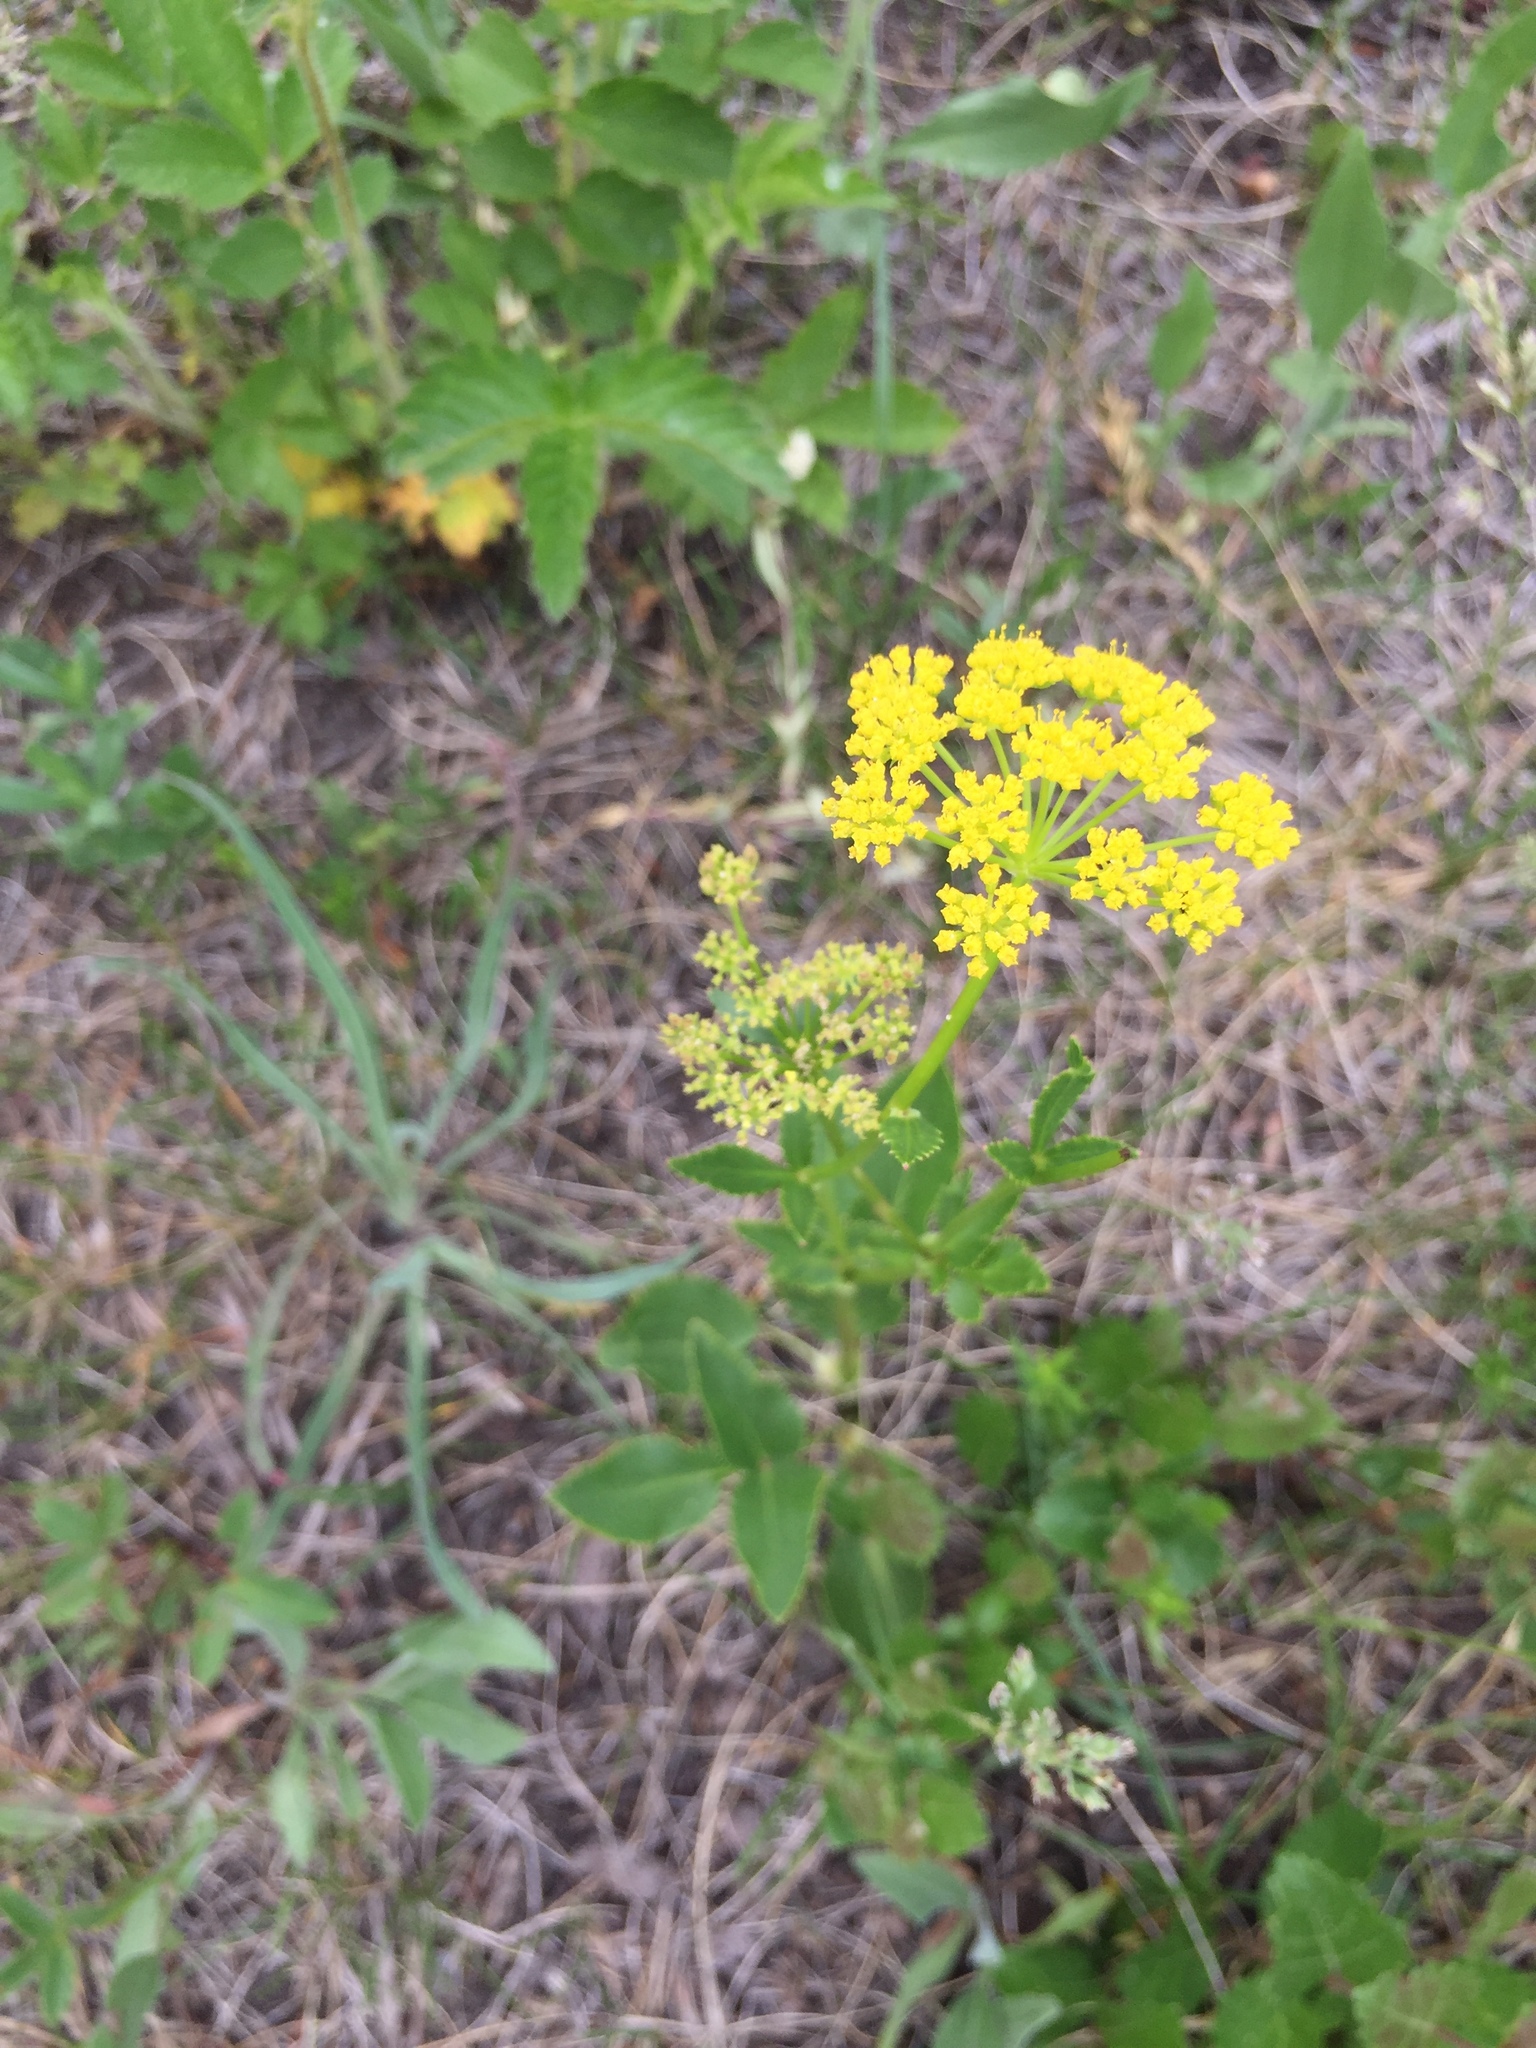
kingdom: Plantae
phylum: Tracheophyta
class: Magnoliopsida
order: Apiales
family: Apiaceae
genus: Zizia
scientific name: Zizia aptera
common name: Heart-leaved alexanders
